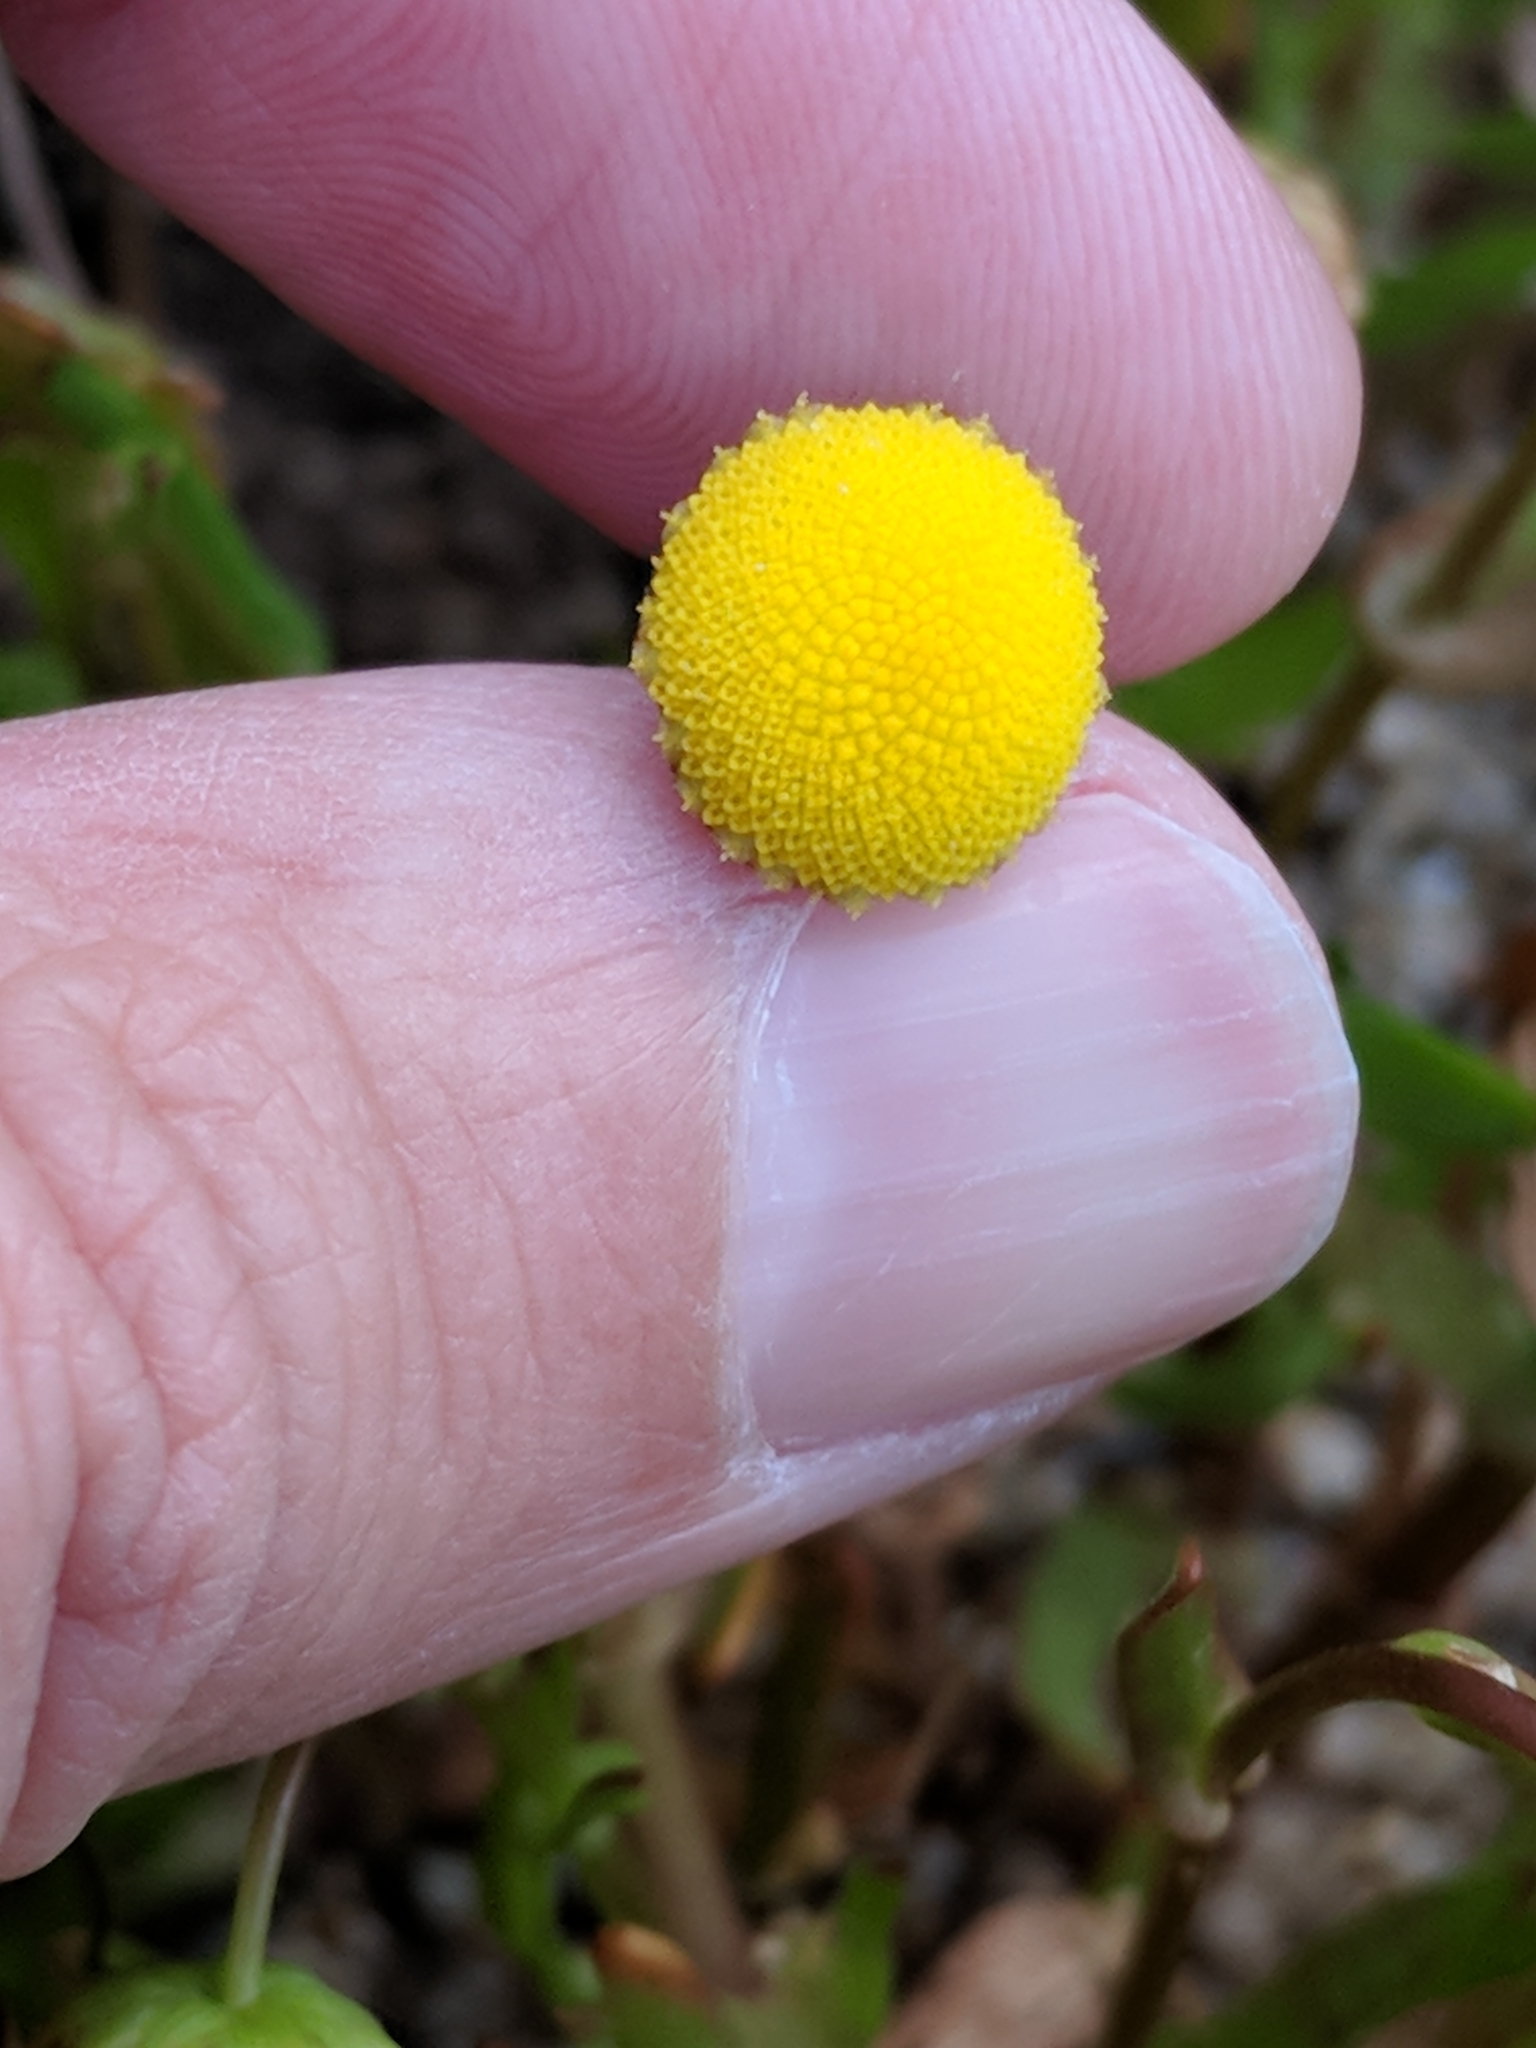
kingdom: Plantae
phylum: Tracheophyta
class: Magnoliopsida
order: Asterales
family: Asteraceae
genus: Cotula
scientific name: Cotula coronopifolia
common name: Buttonweed
